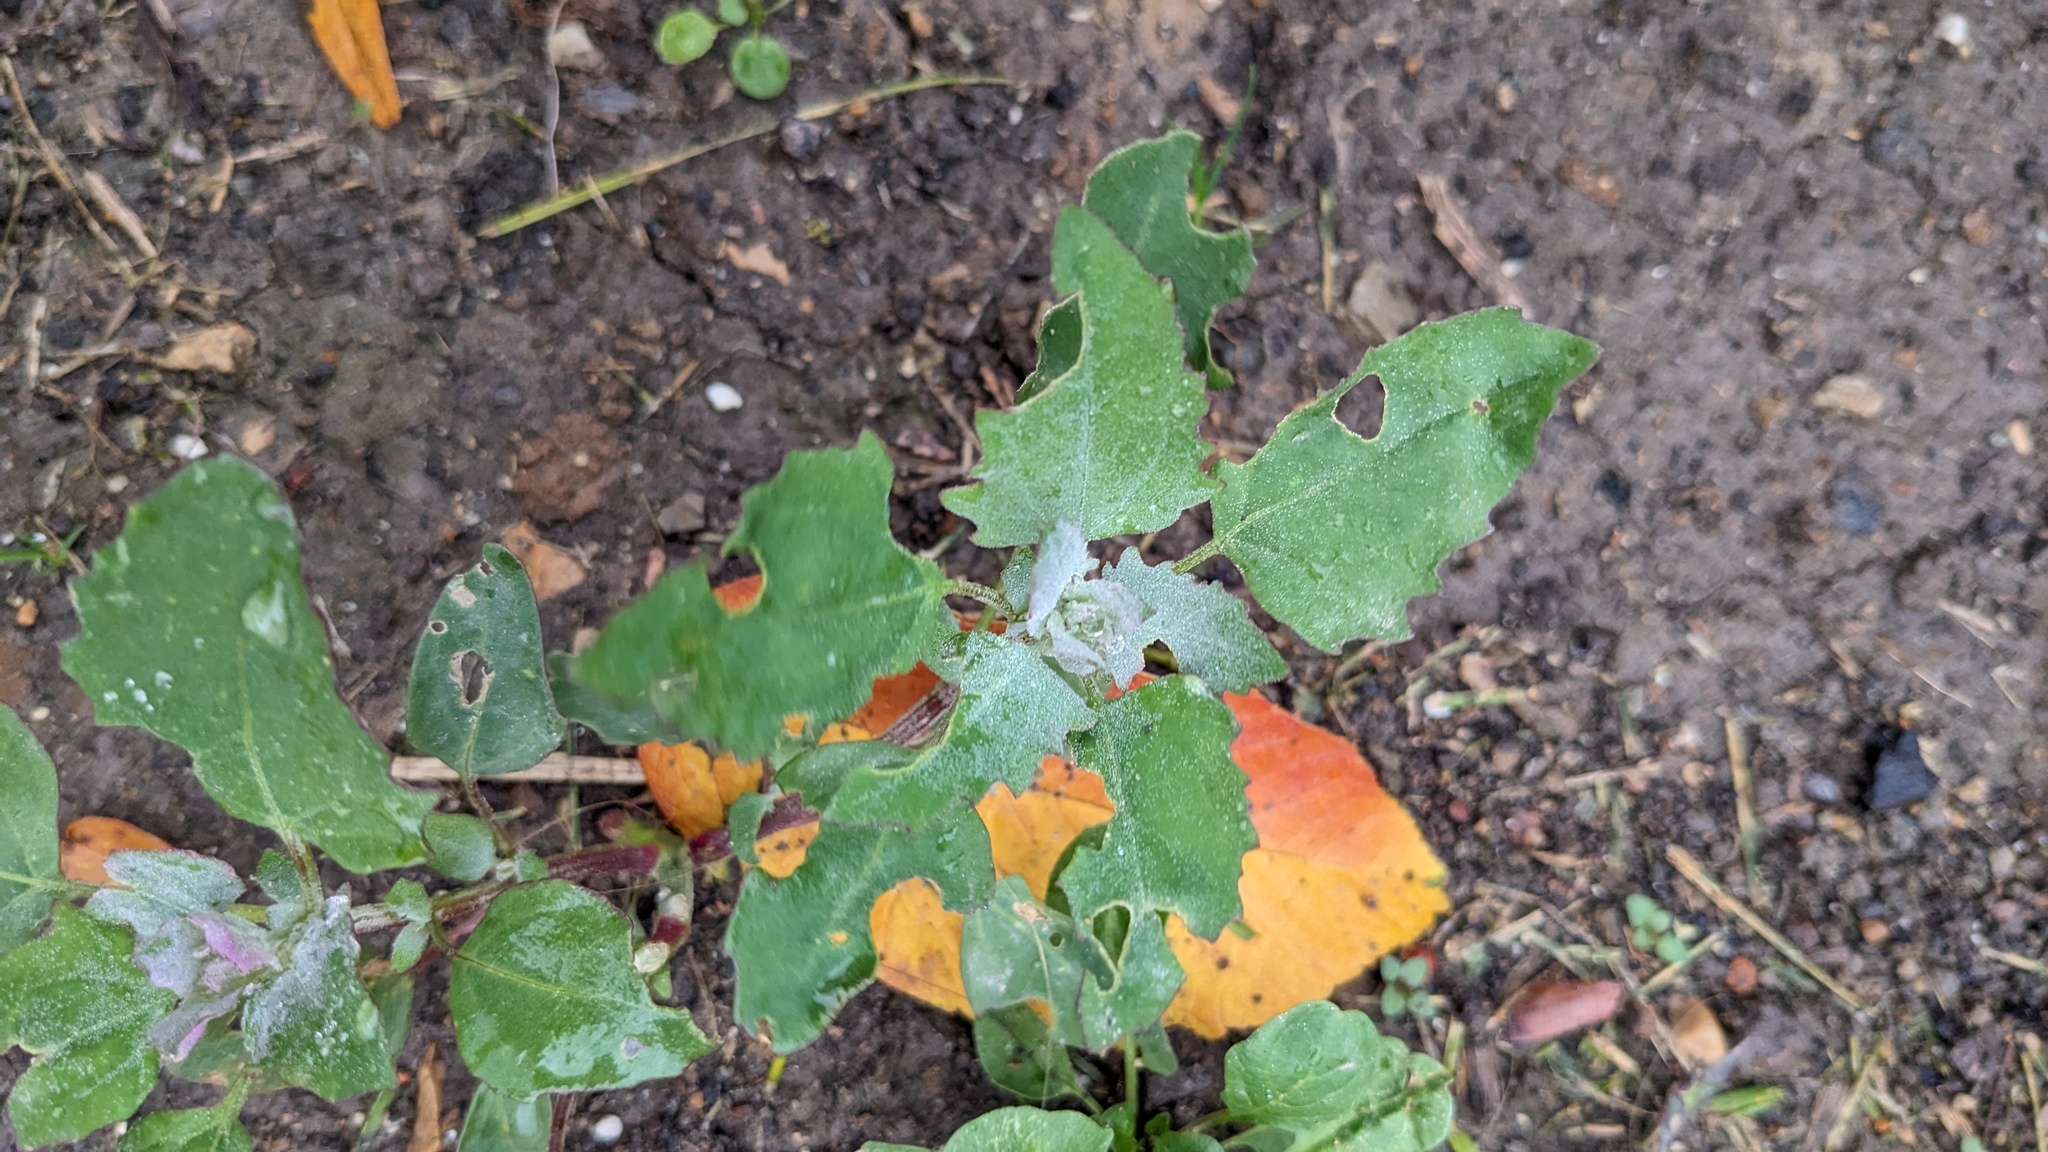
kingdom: Plantae
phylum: Tracheophyta
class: Magnoliopsida
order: Caryophyllales
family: Amaranthaceae
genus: Chenopodium
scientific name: Chenopodium album
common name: Fat-hen
